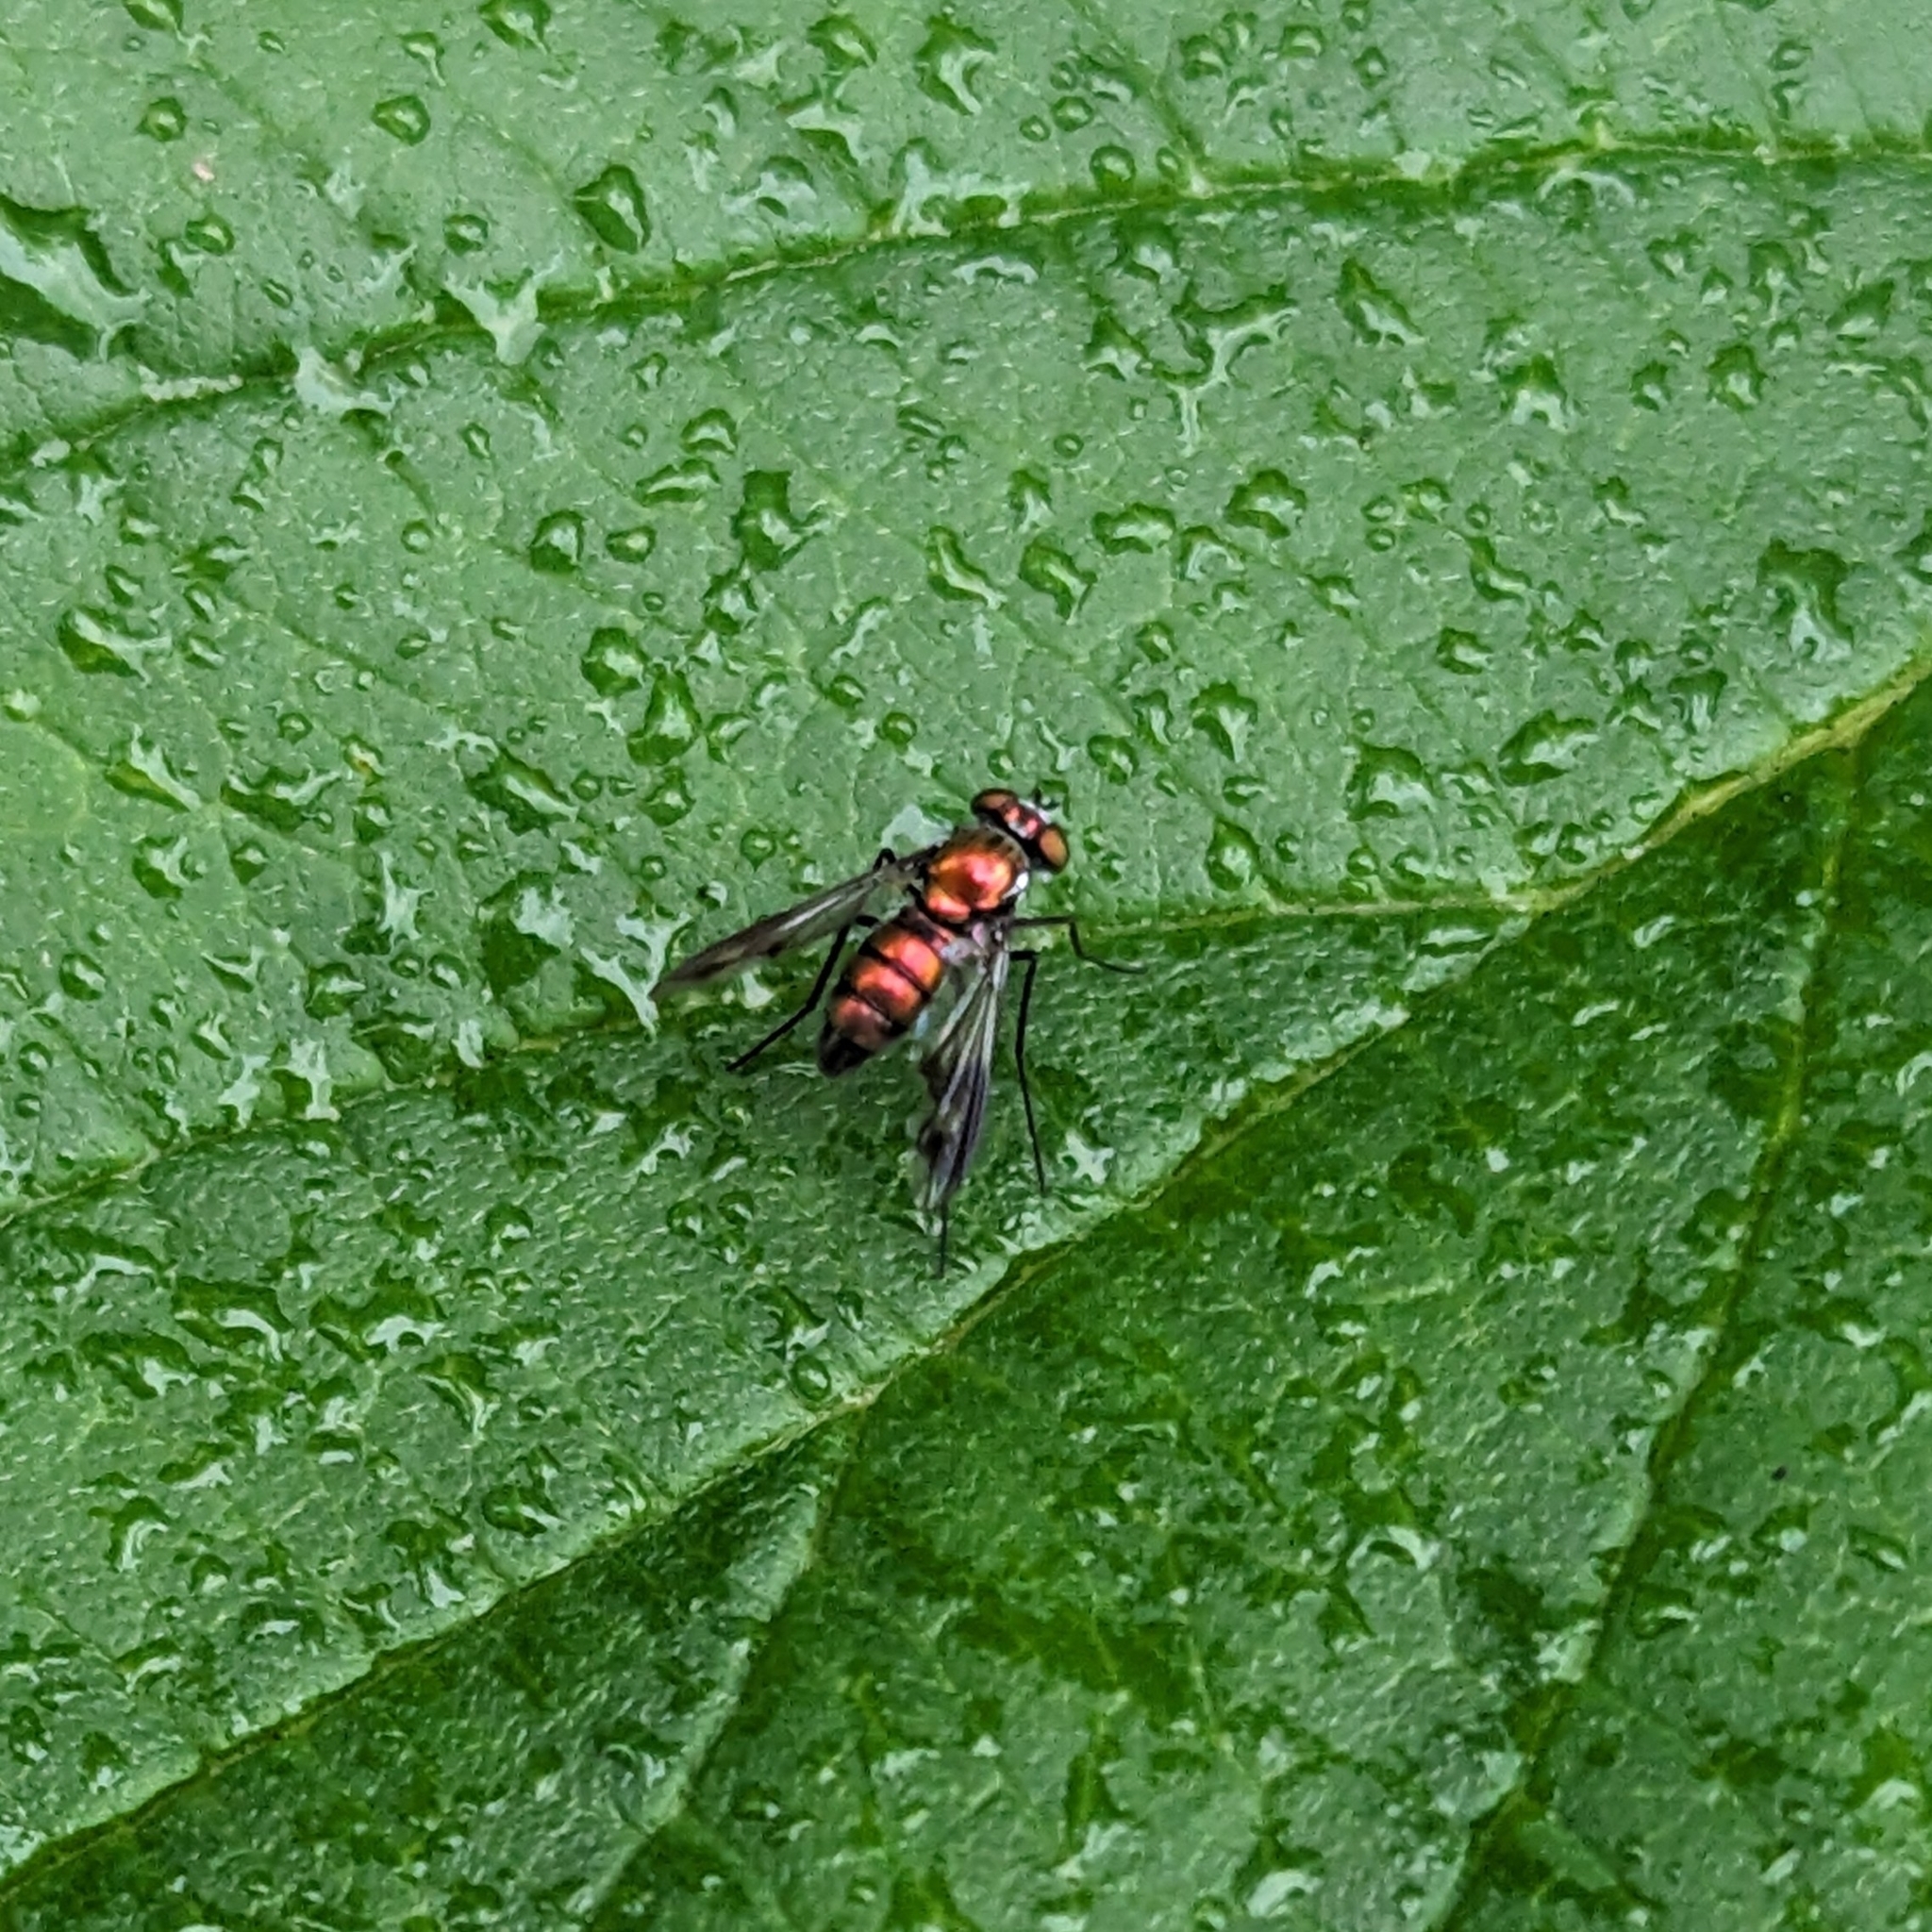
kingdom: Animalia
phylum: Arthropoda
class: Insecta
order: Diptera
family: Dolichopodidae
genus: Condylostylus
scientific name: Condylostylus patibulatus
